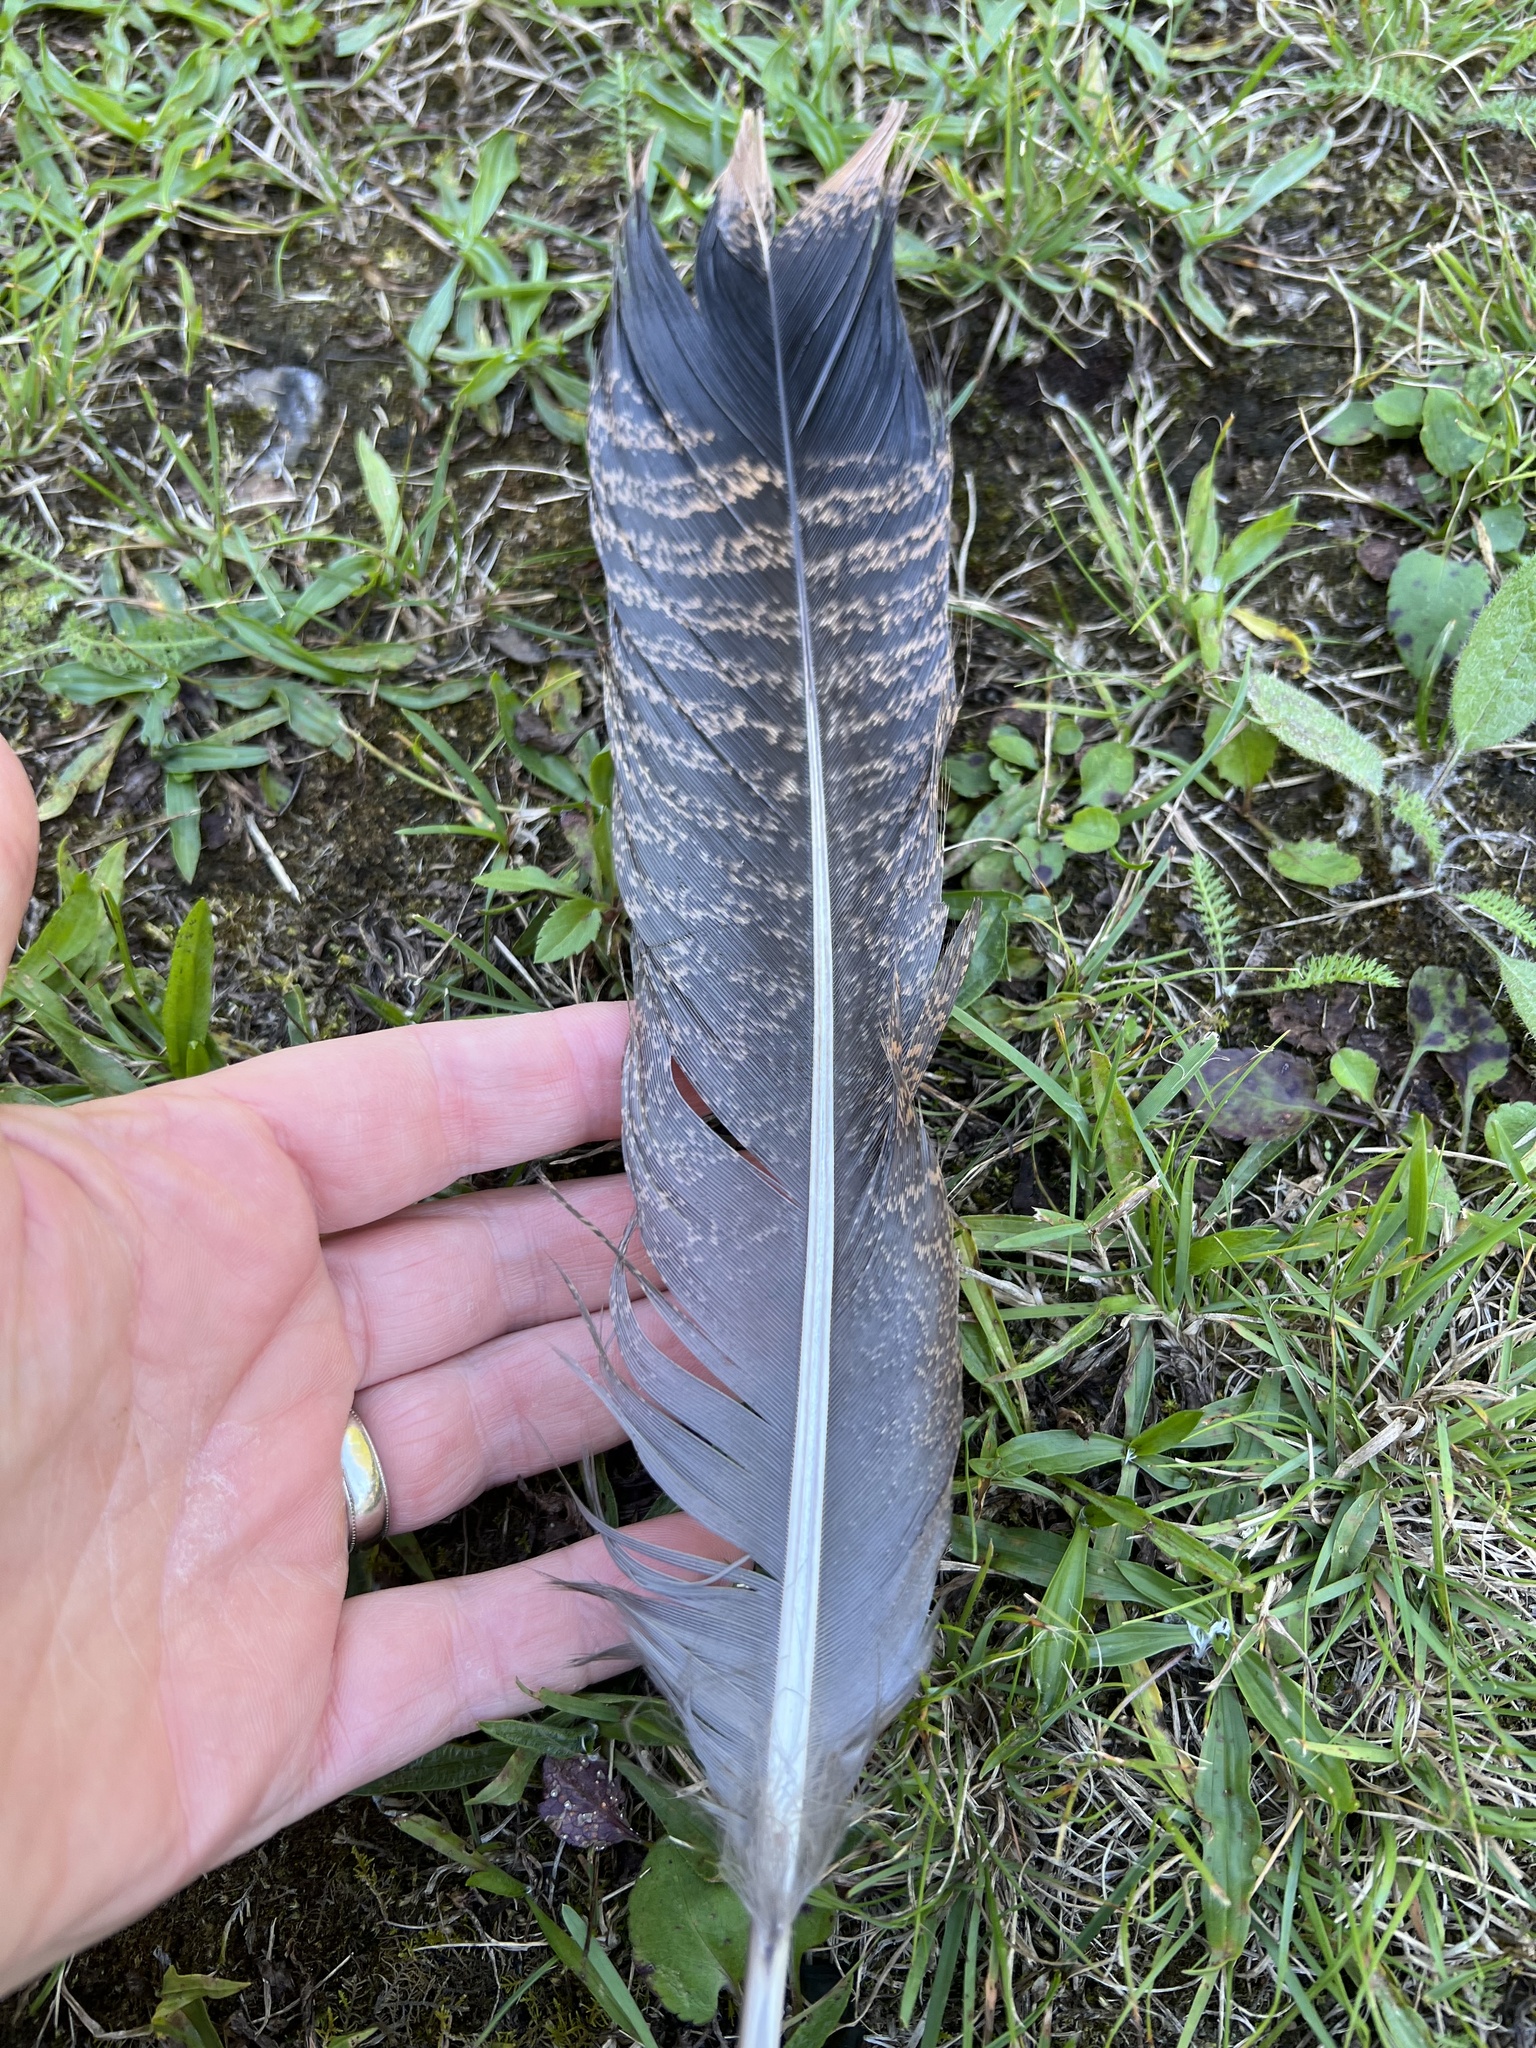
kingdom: Animalia
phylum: Chordata
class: Aves
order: Galliformes
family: Phasianidae
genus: Meleagris
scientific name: Meleagris gallopavo
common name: Wild turkey
